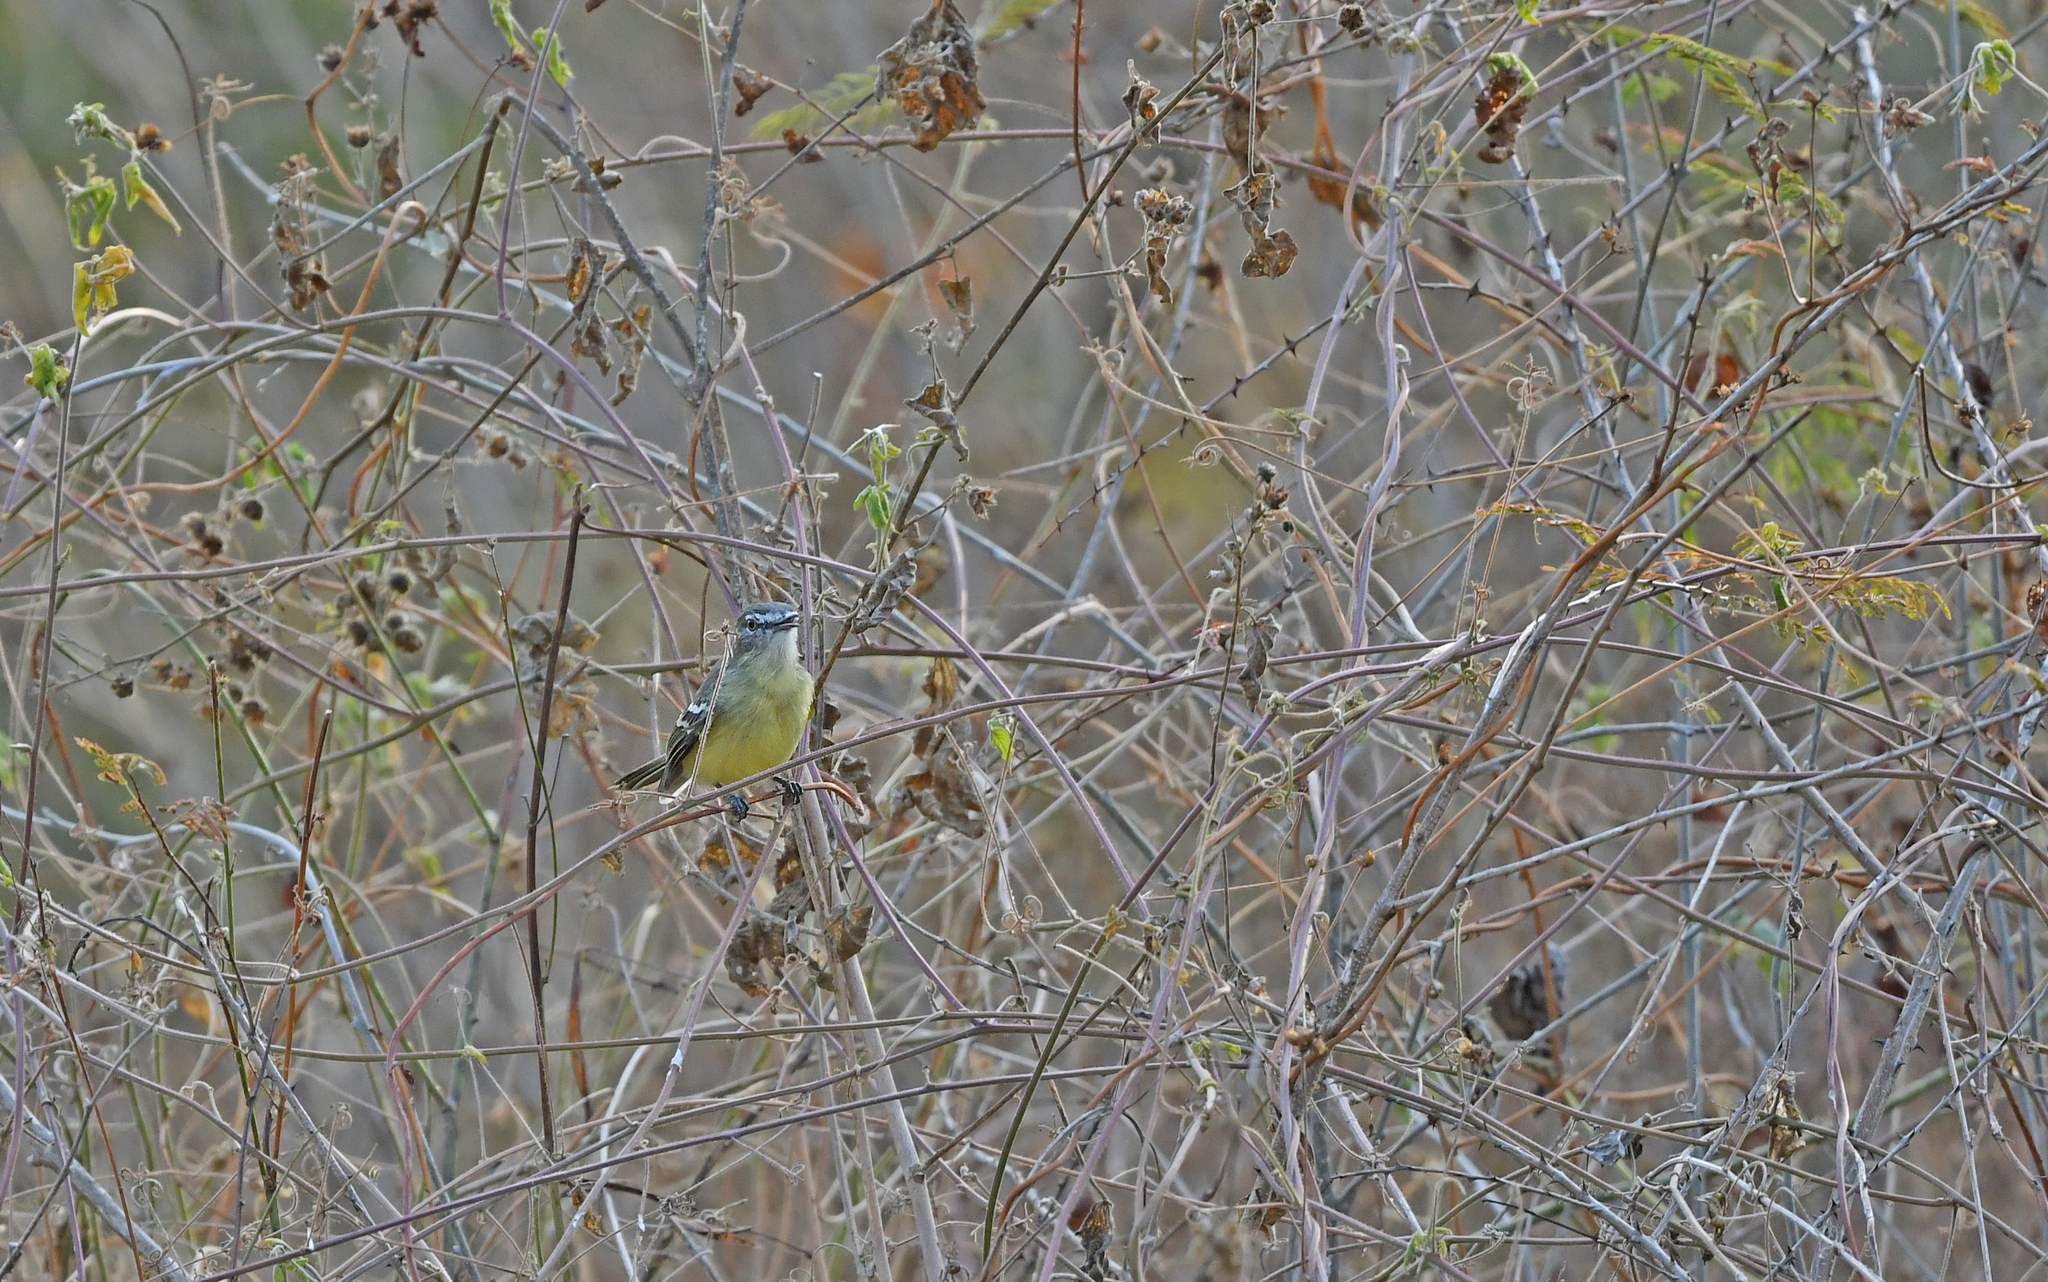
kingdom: Animalia
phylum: Chordata
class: Aves
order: Passeriformes
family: Tyrannidae
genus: Inezia
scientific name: Inezia caudata
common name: Pale-tipped inezia
